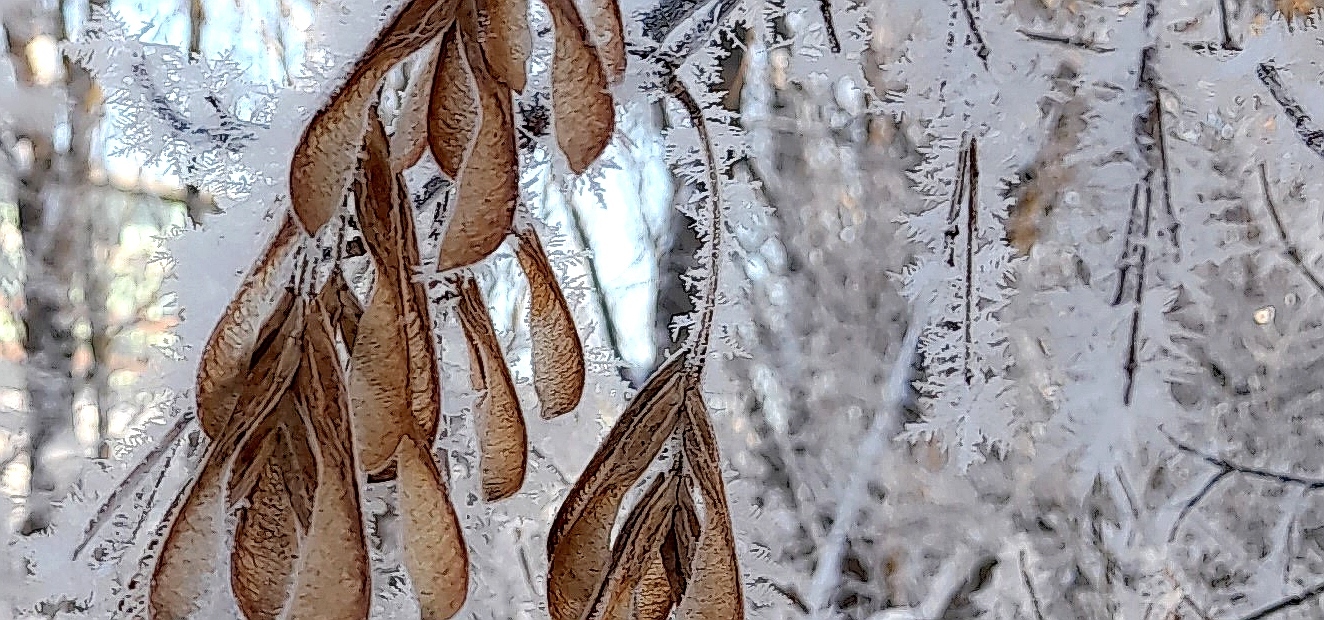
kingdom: Plantae
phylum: Tracheophyta
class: Magnoliopsida
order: Sapindales
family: Sapindaceae
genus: Acer
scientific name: Acer negundo
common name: Ashleaf maple
